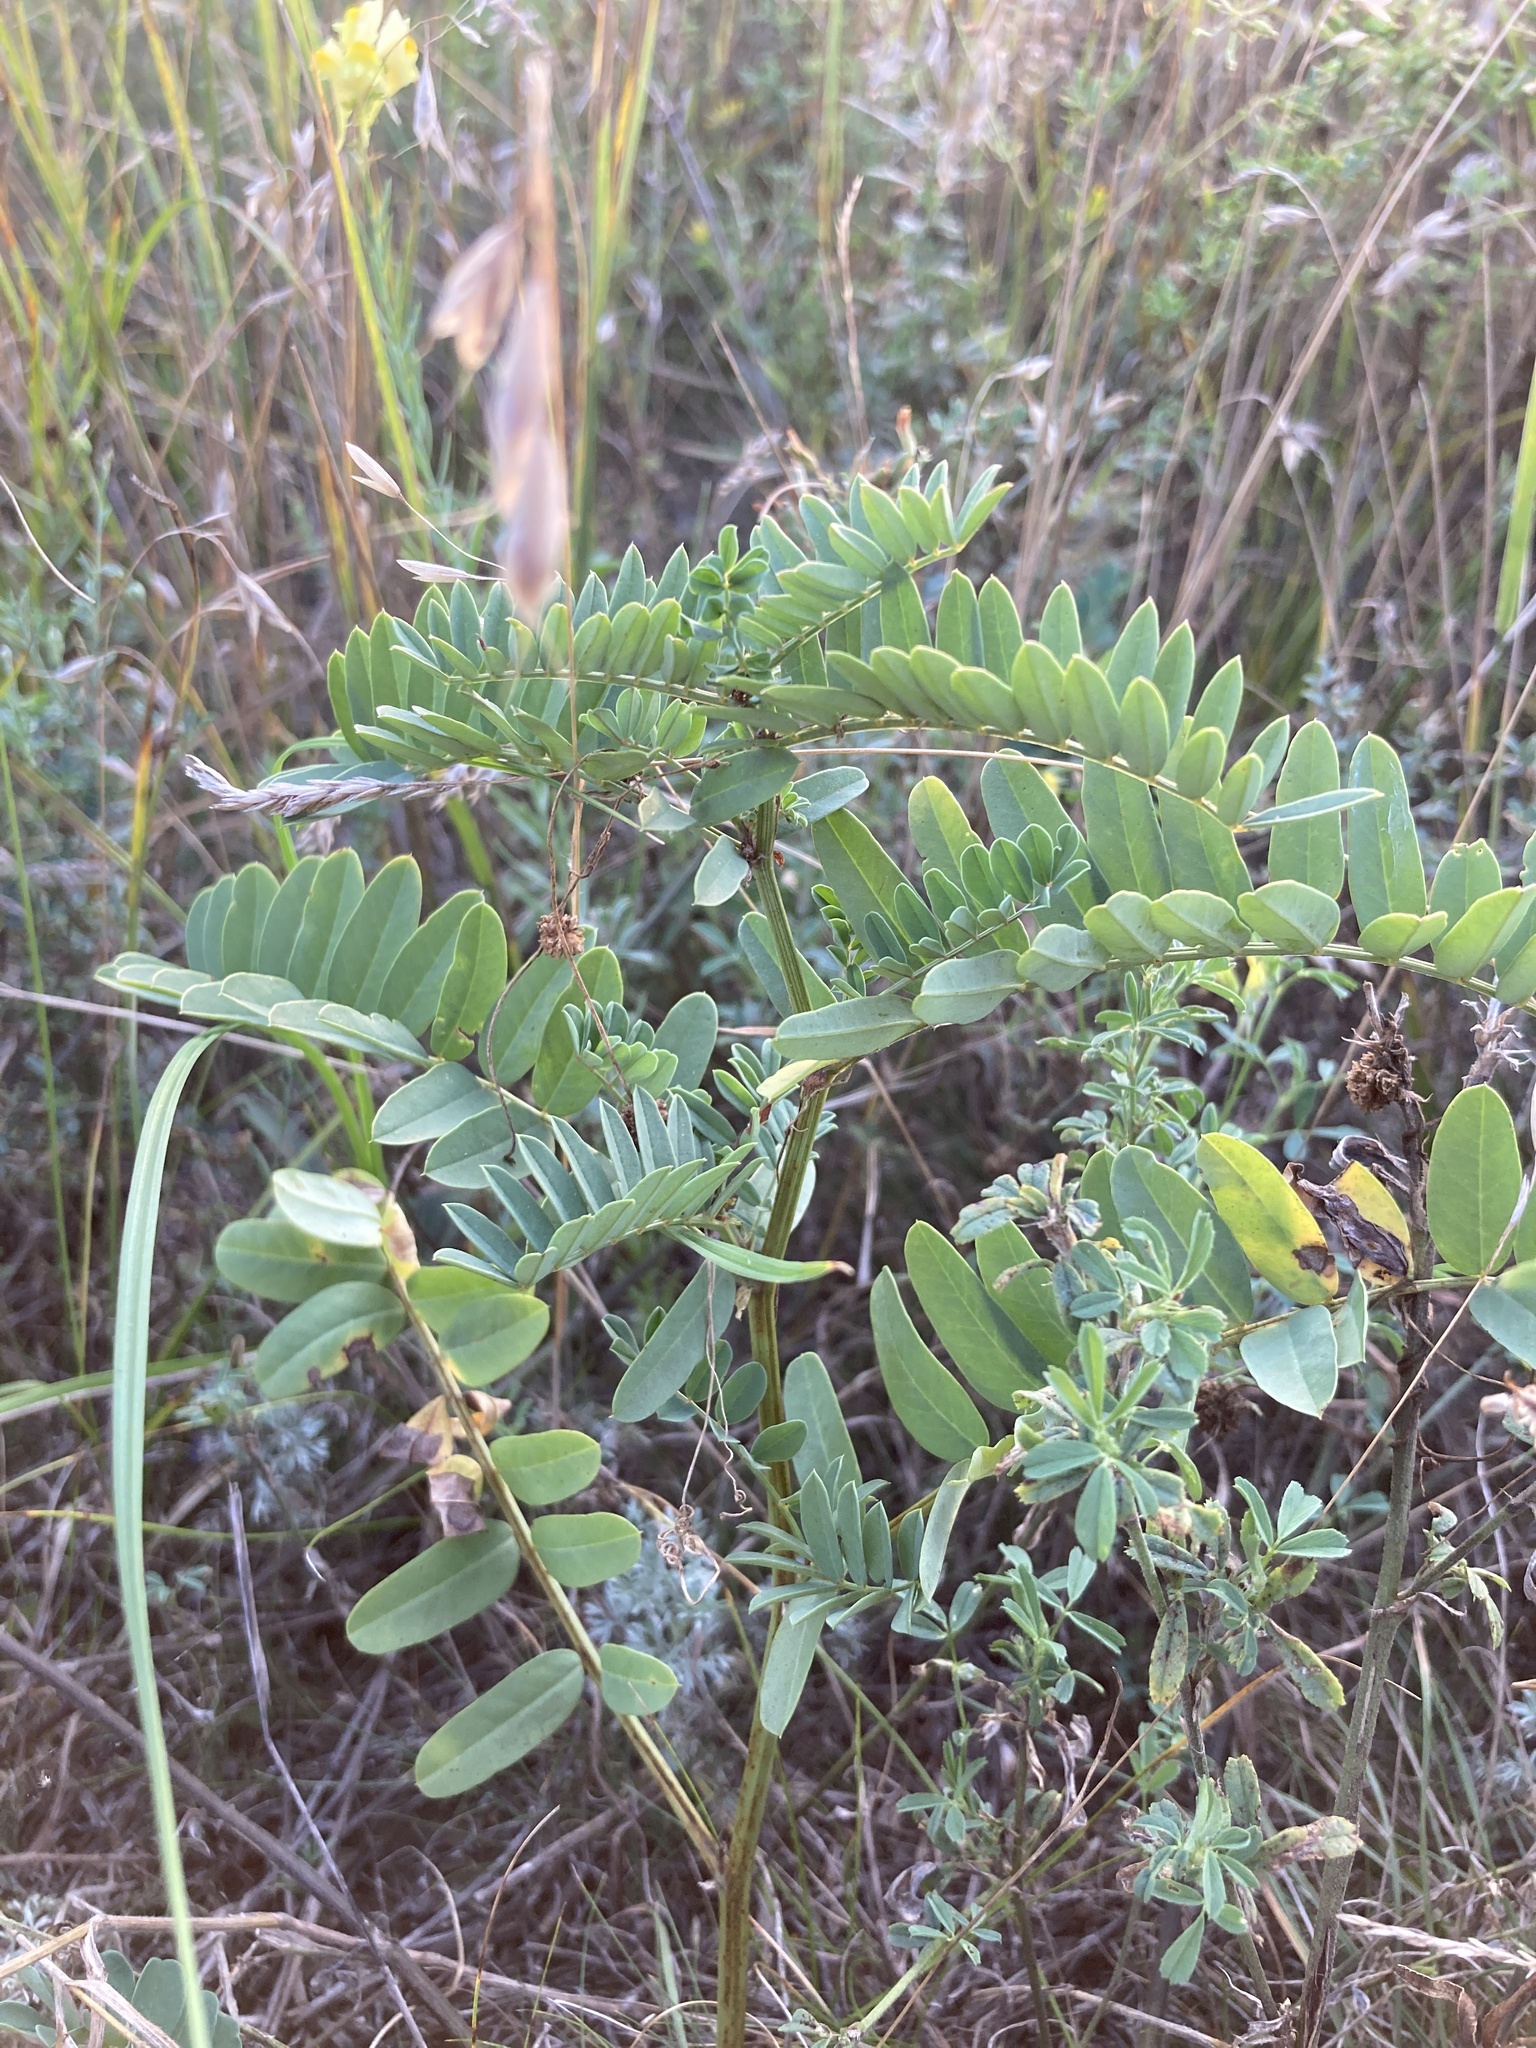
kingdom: Plantae
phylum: Tracheophyta
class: Magnoliopsida
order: Fabales
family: Fabaceae
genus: Coronilla
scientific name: Coronilla varia
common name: Crownvetch
